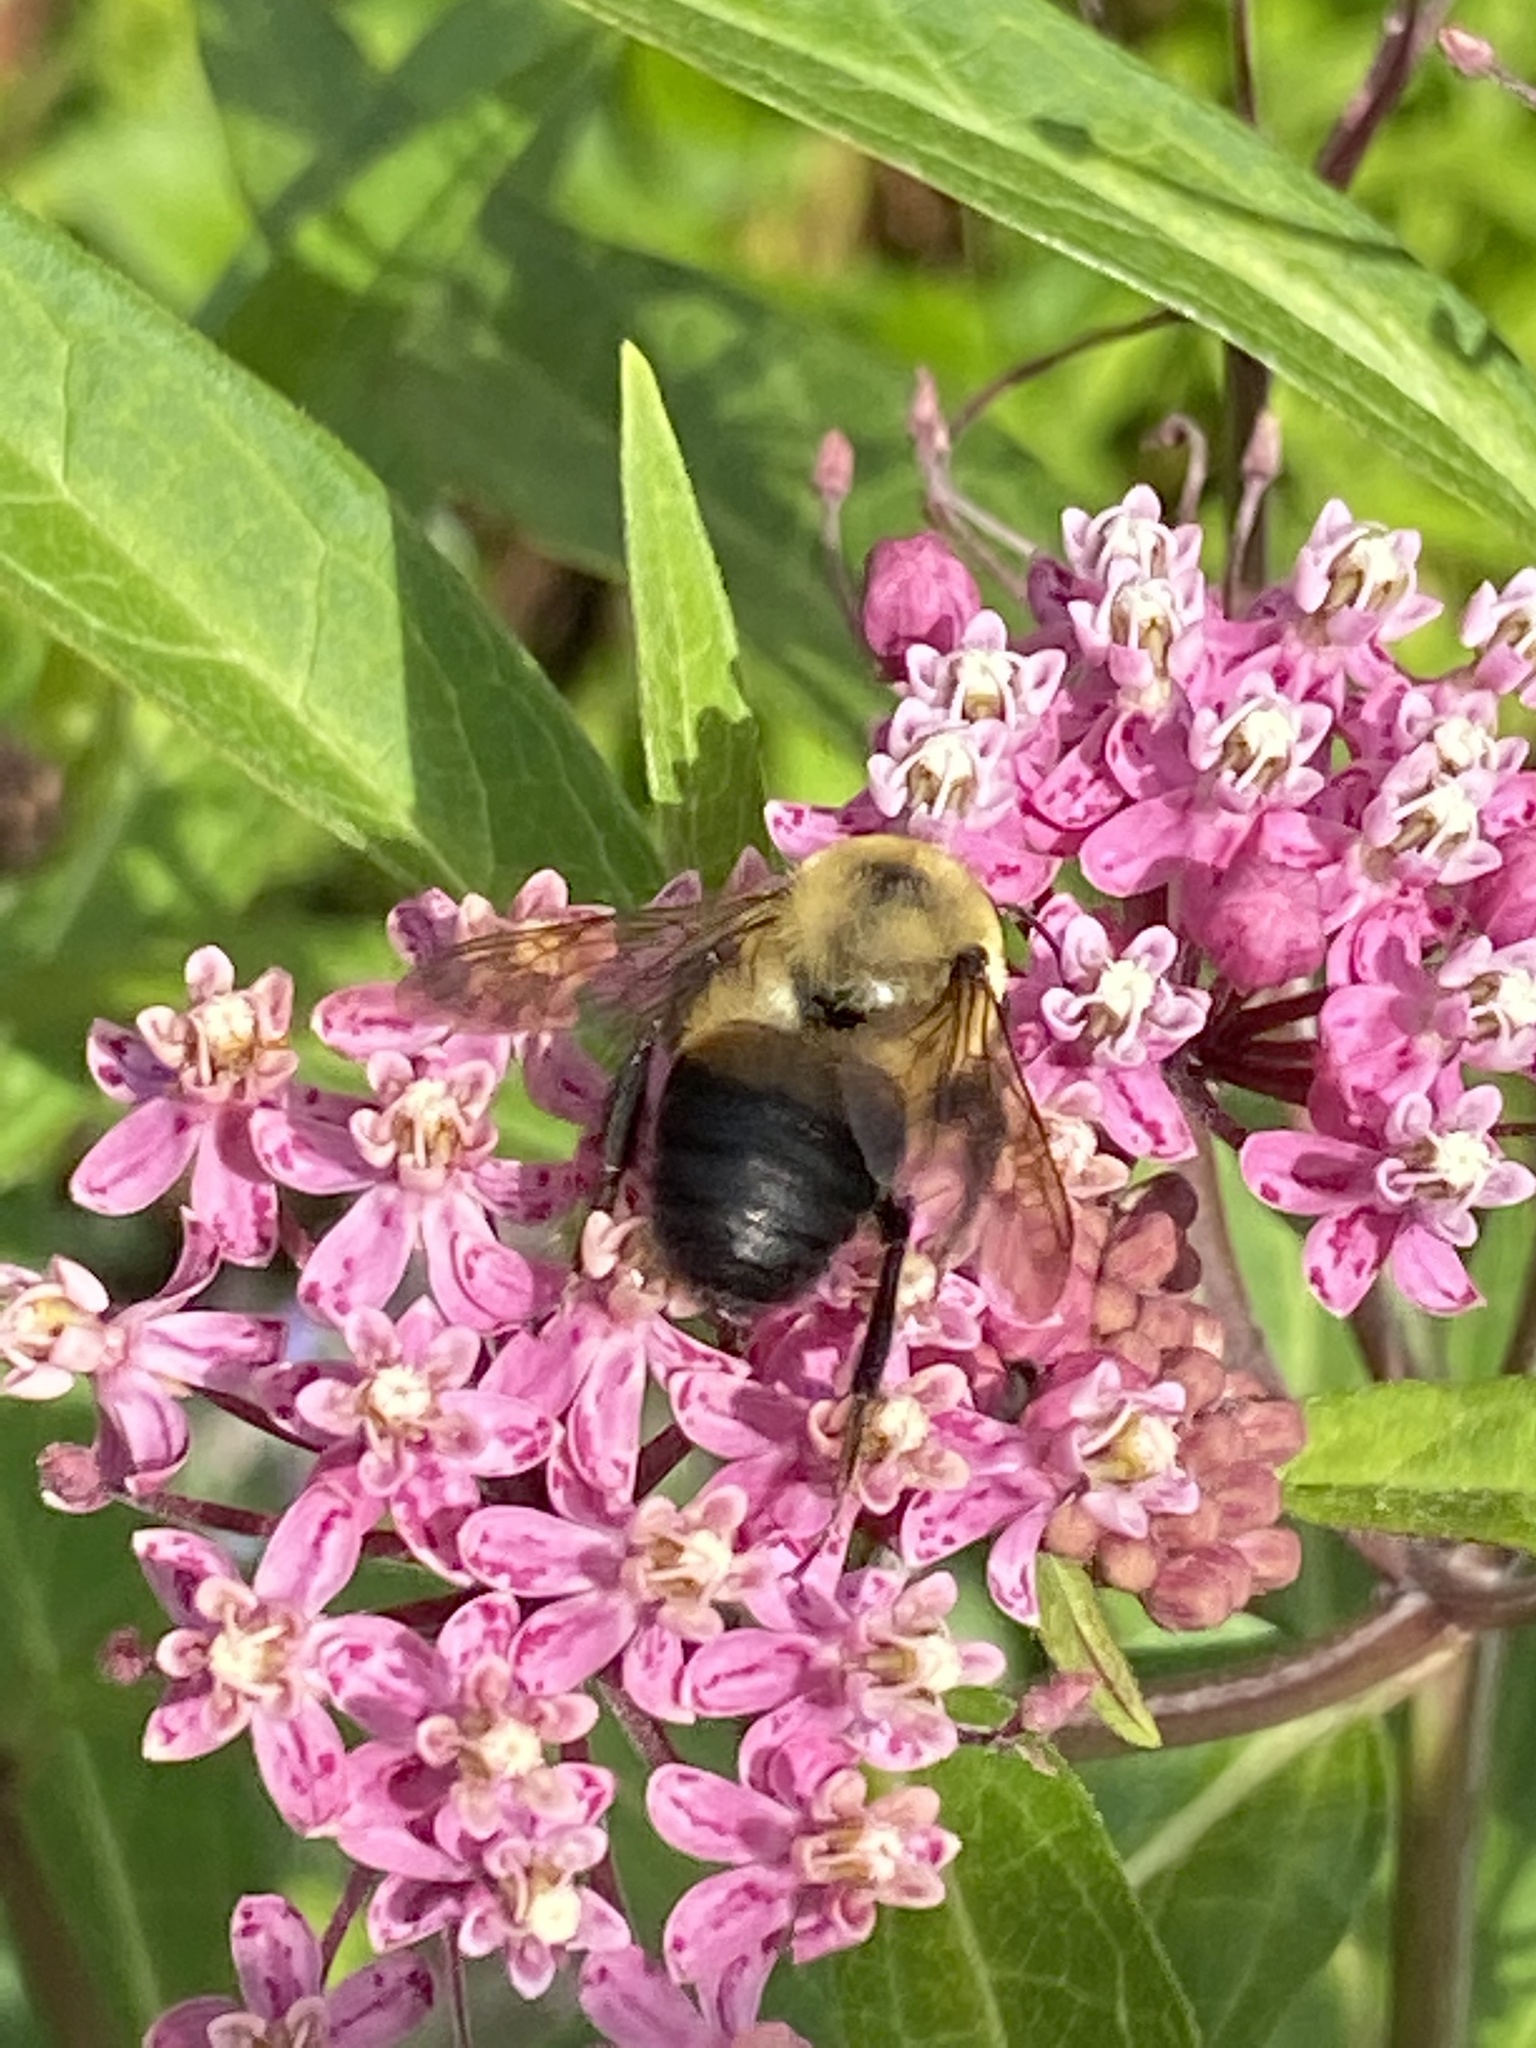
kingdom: Animalia
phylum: Arthropoda
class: Insecta
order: Hymenoptera
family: Apidae
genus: Bombus
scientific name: Bombus griseocollis
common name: Brown-belted bumble bee
